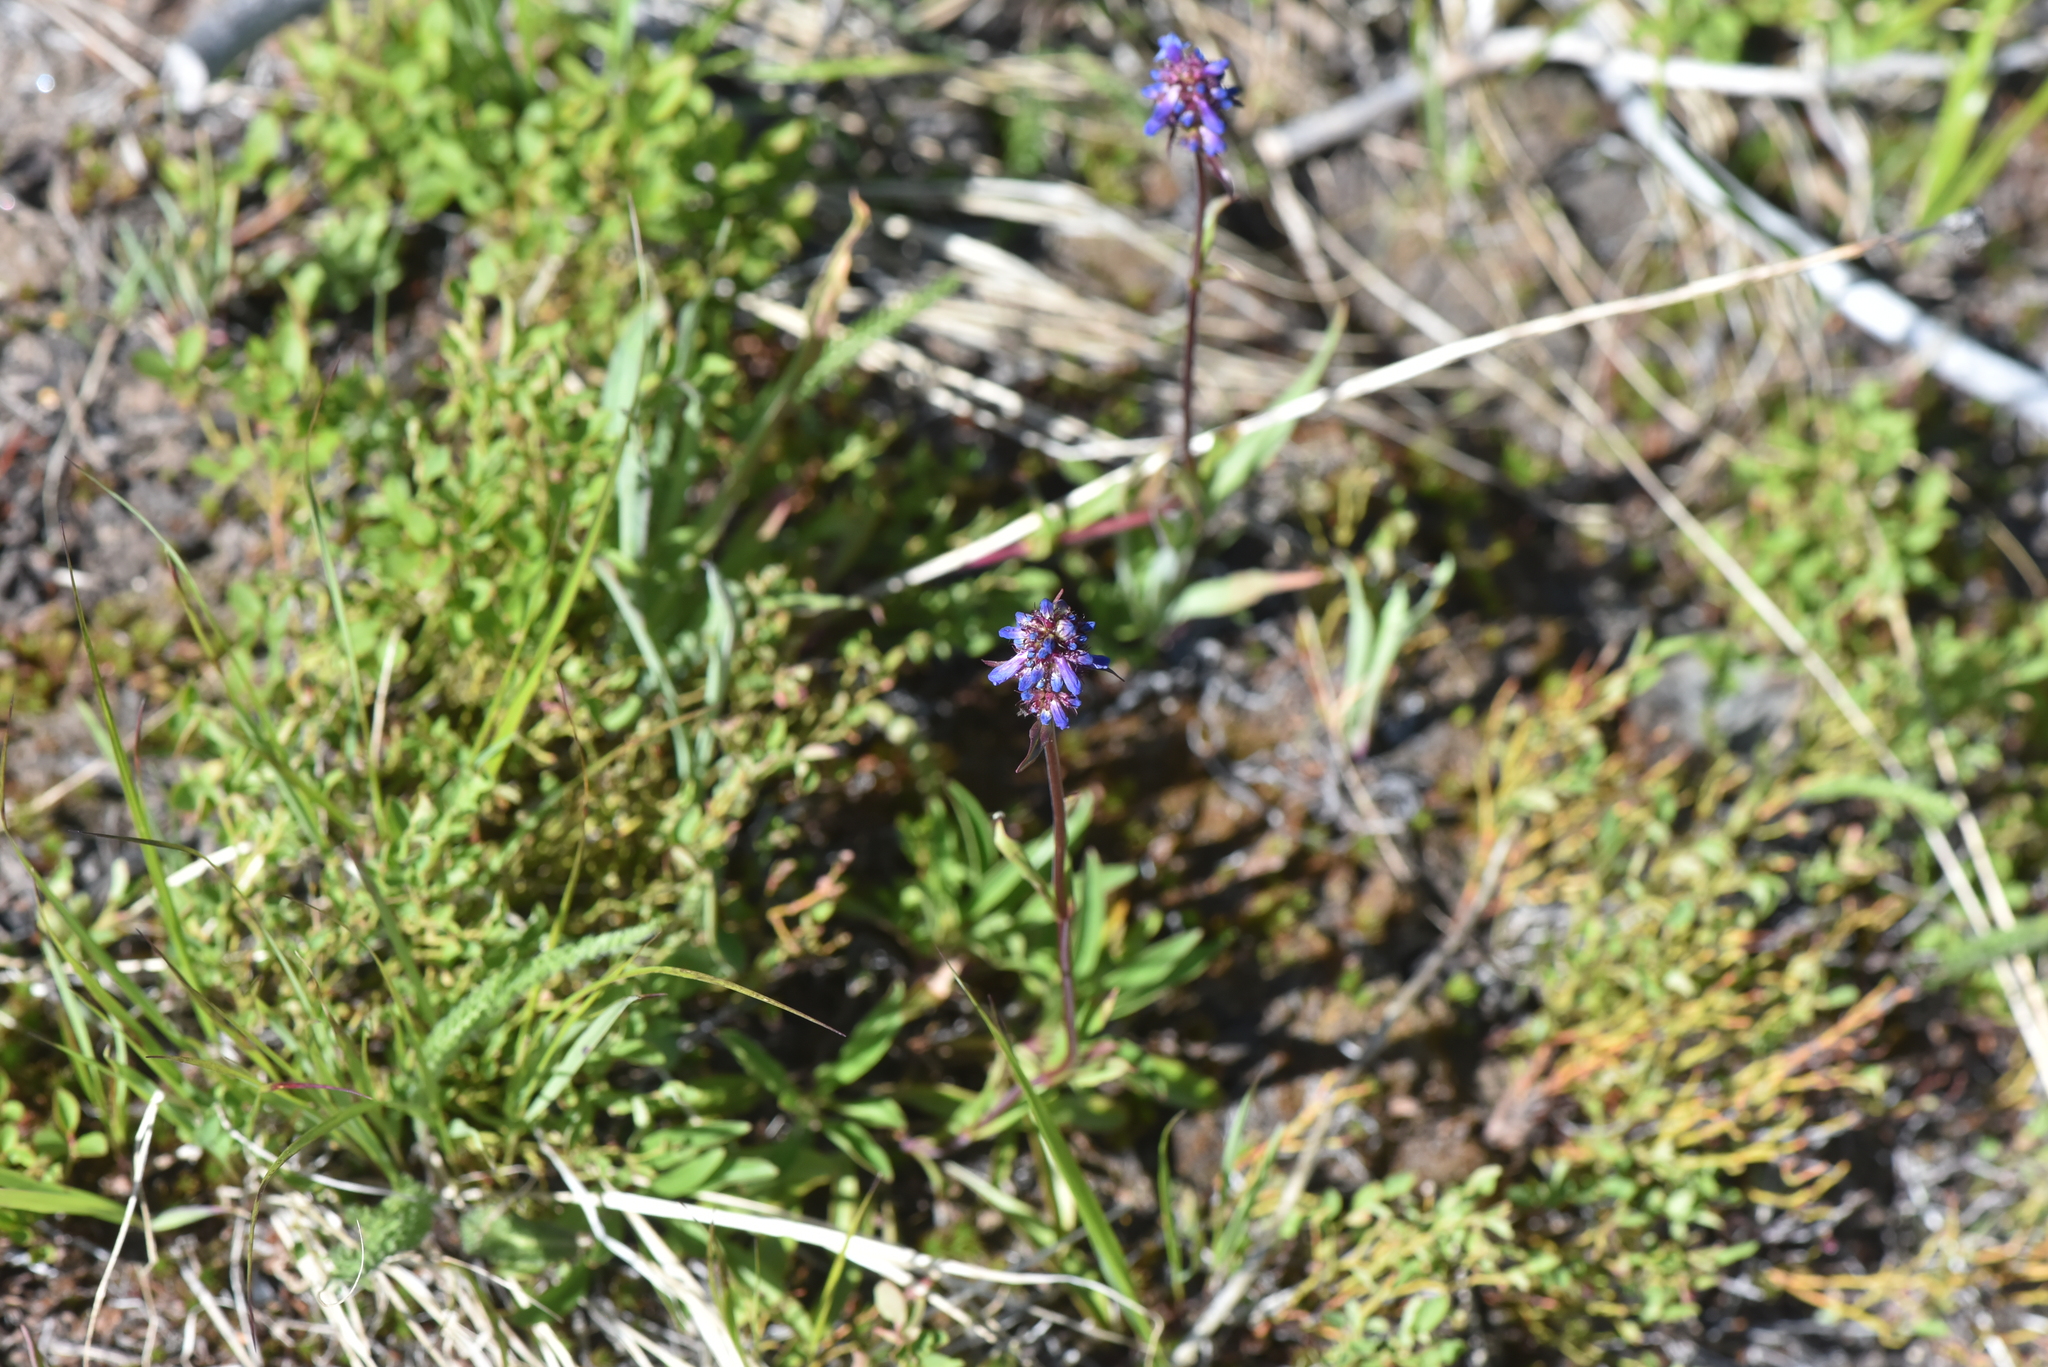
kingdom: Plantae
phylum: Tracheophyta
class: Magnoliopsida
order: Lamiales
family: Plantaginaceae
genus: Penstemon
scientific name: Penstemon procerus
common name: Small-flower penstemon
